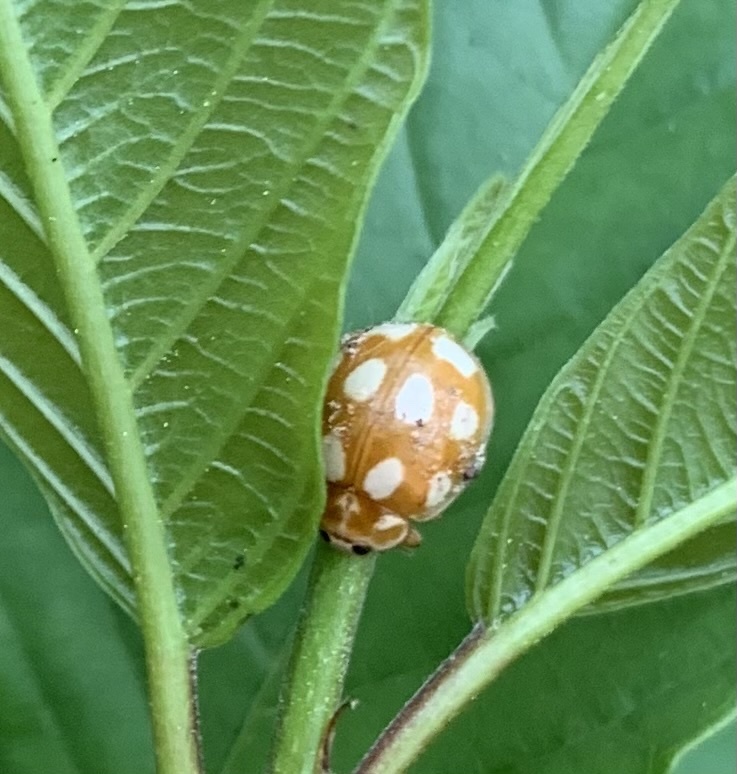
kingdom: Animalia
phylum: Arthropoda
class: Insecta
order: Coleoptera
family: Coccinellidae
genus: Calvia
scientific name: Calvia decemguttata
